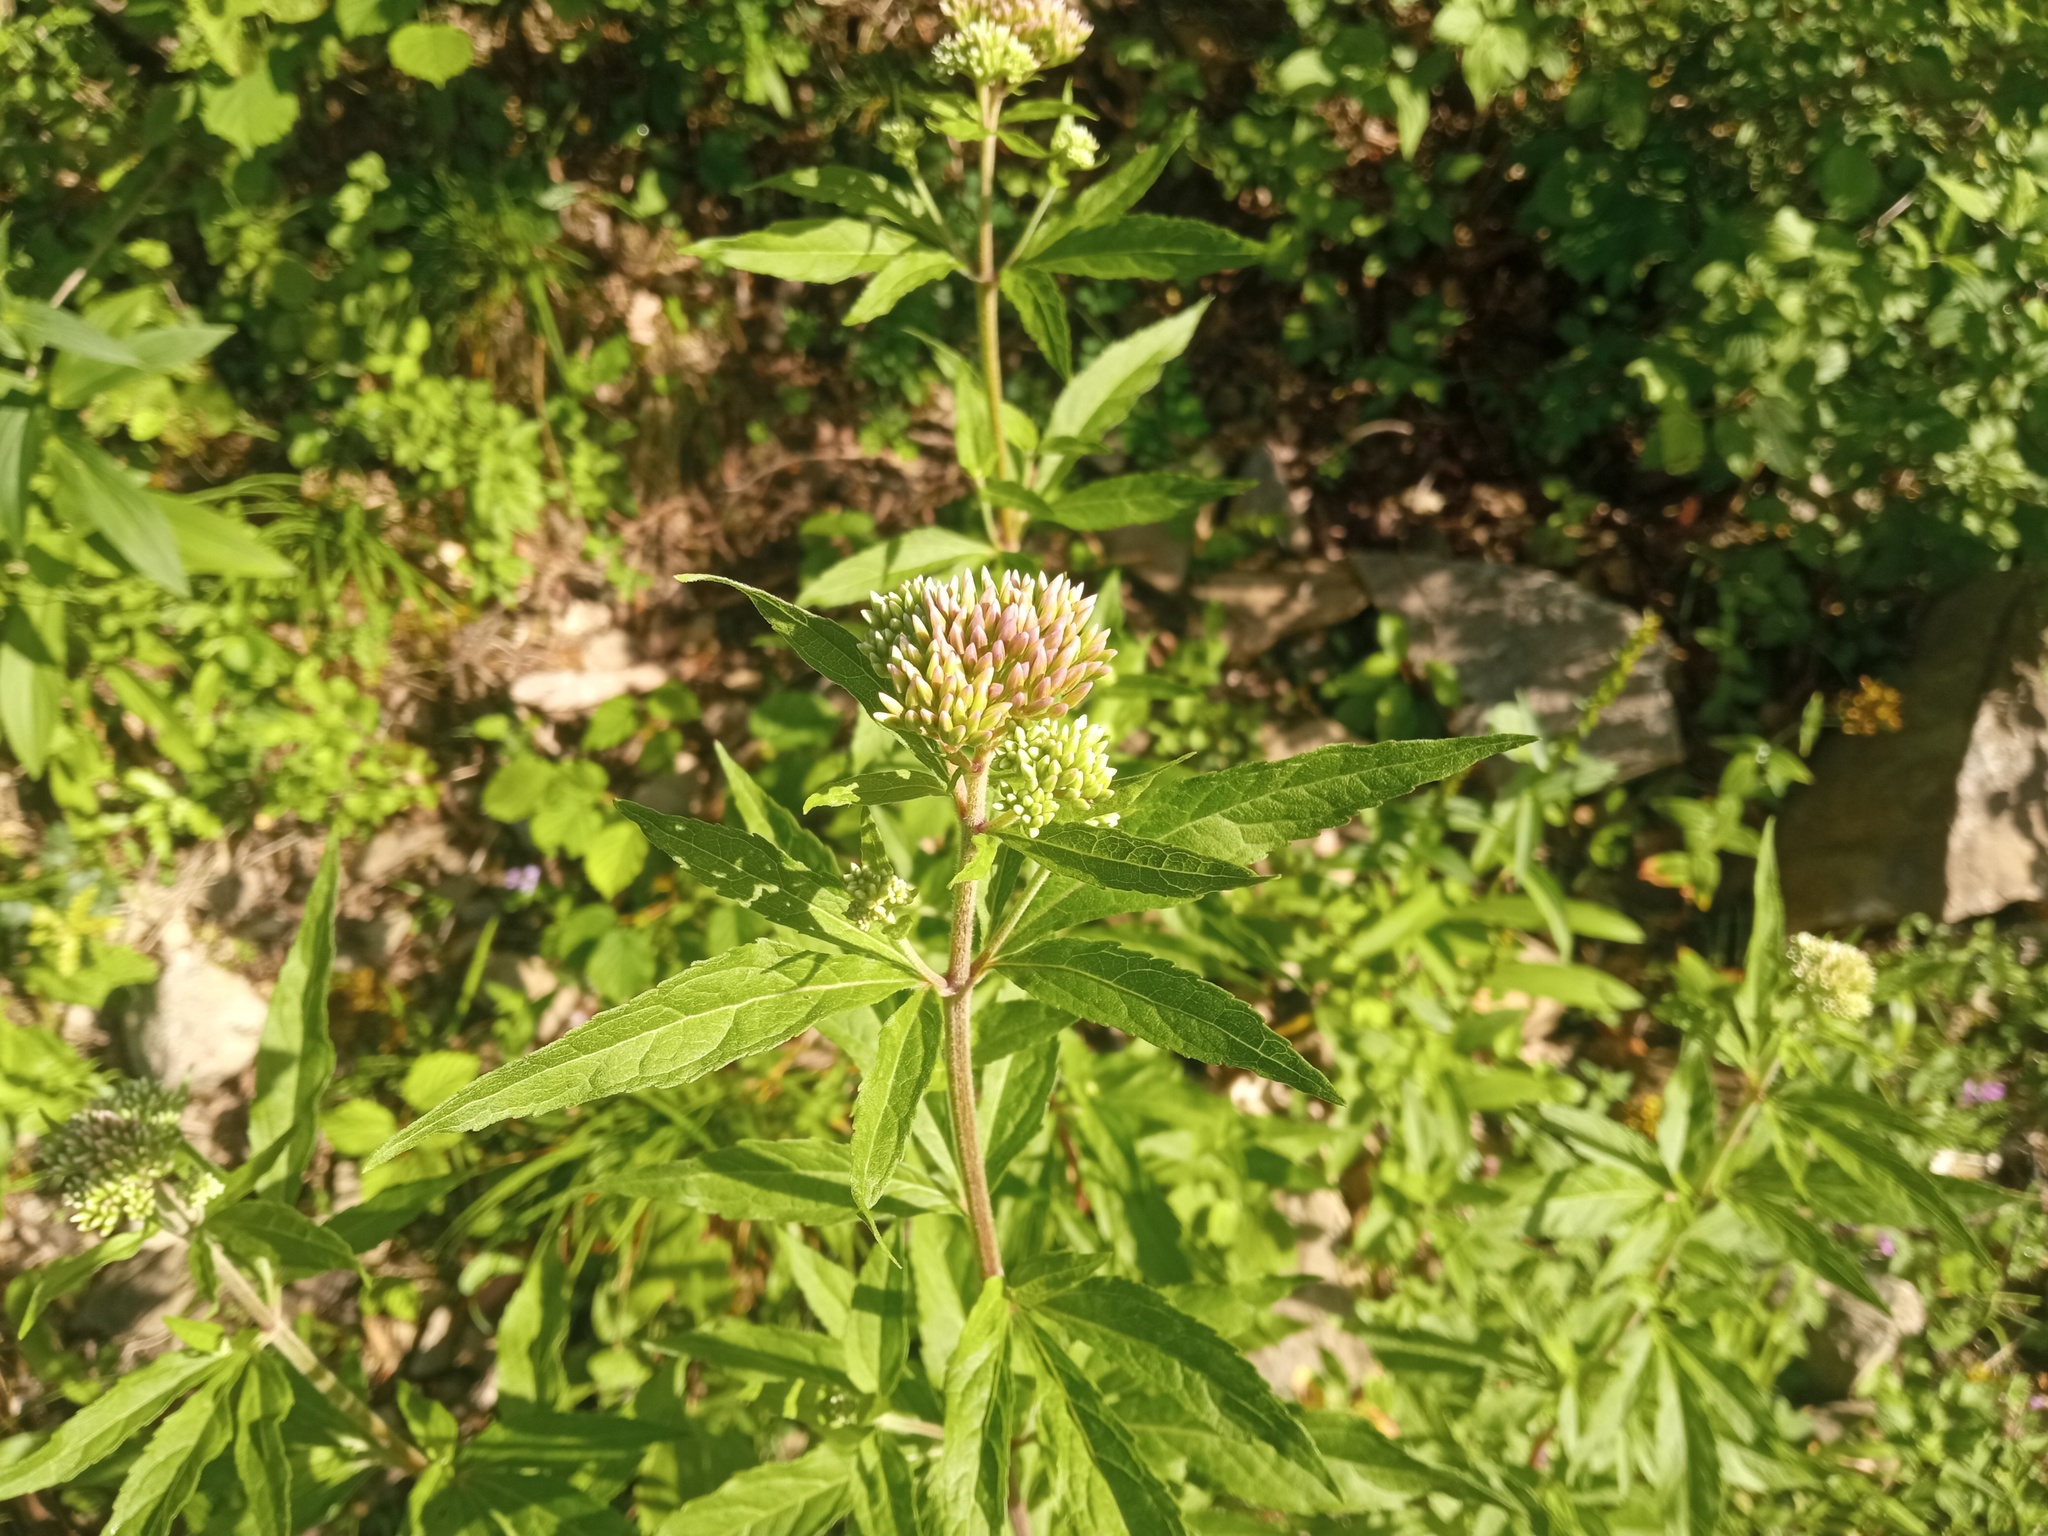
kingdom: Plantae
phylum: Tracheophyta
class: Magnoliopsida
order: Asterales
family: Asteraceae
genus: Eupatorium
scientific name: Eupatorium cannabinum
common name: Hemp-agrimony
